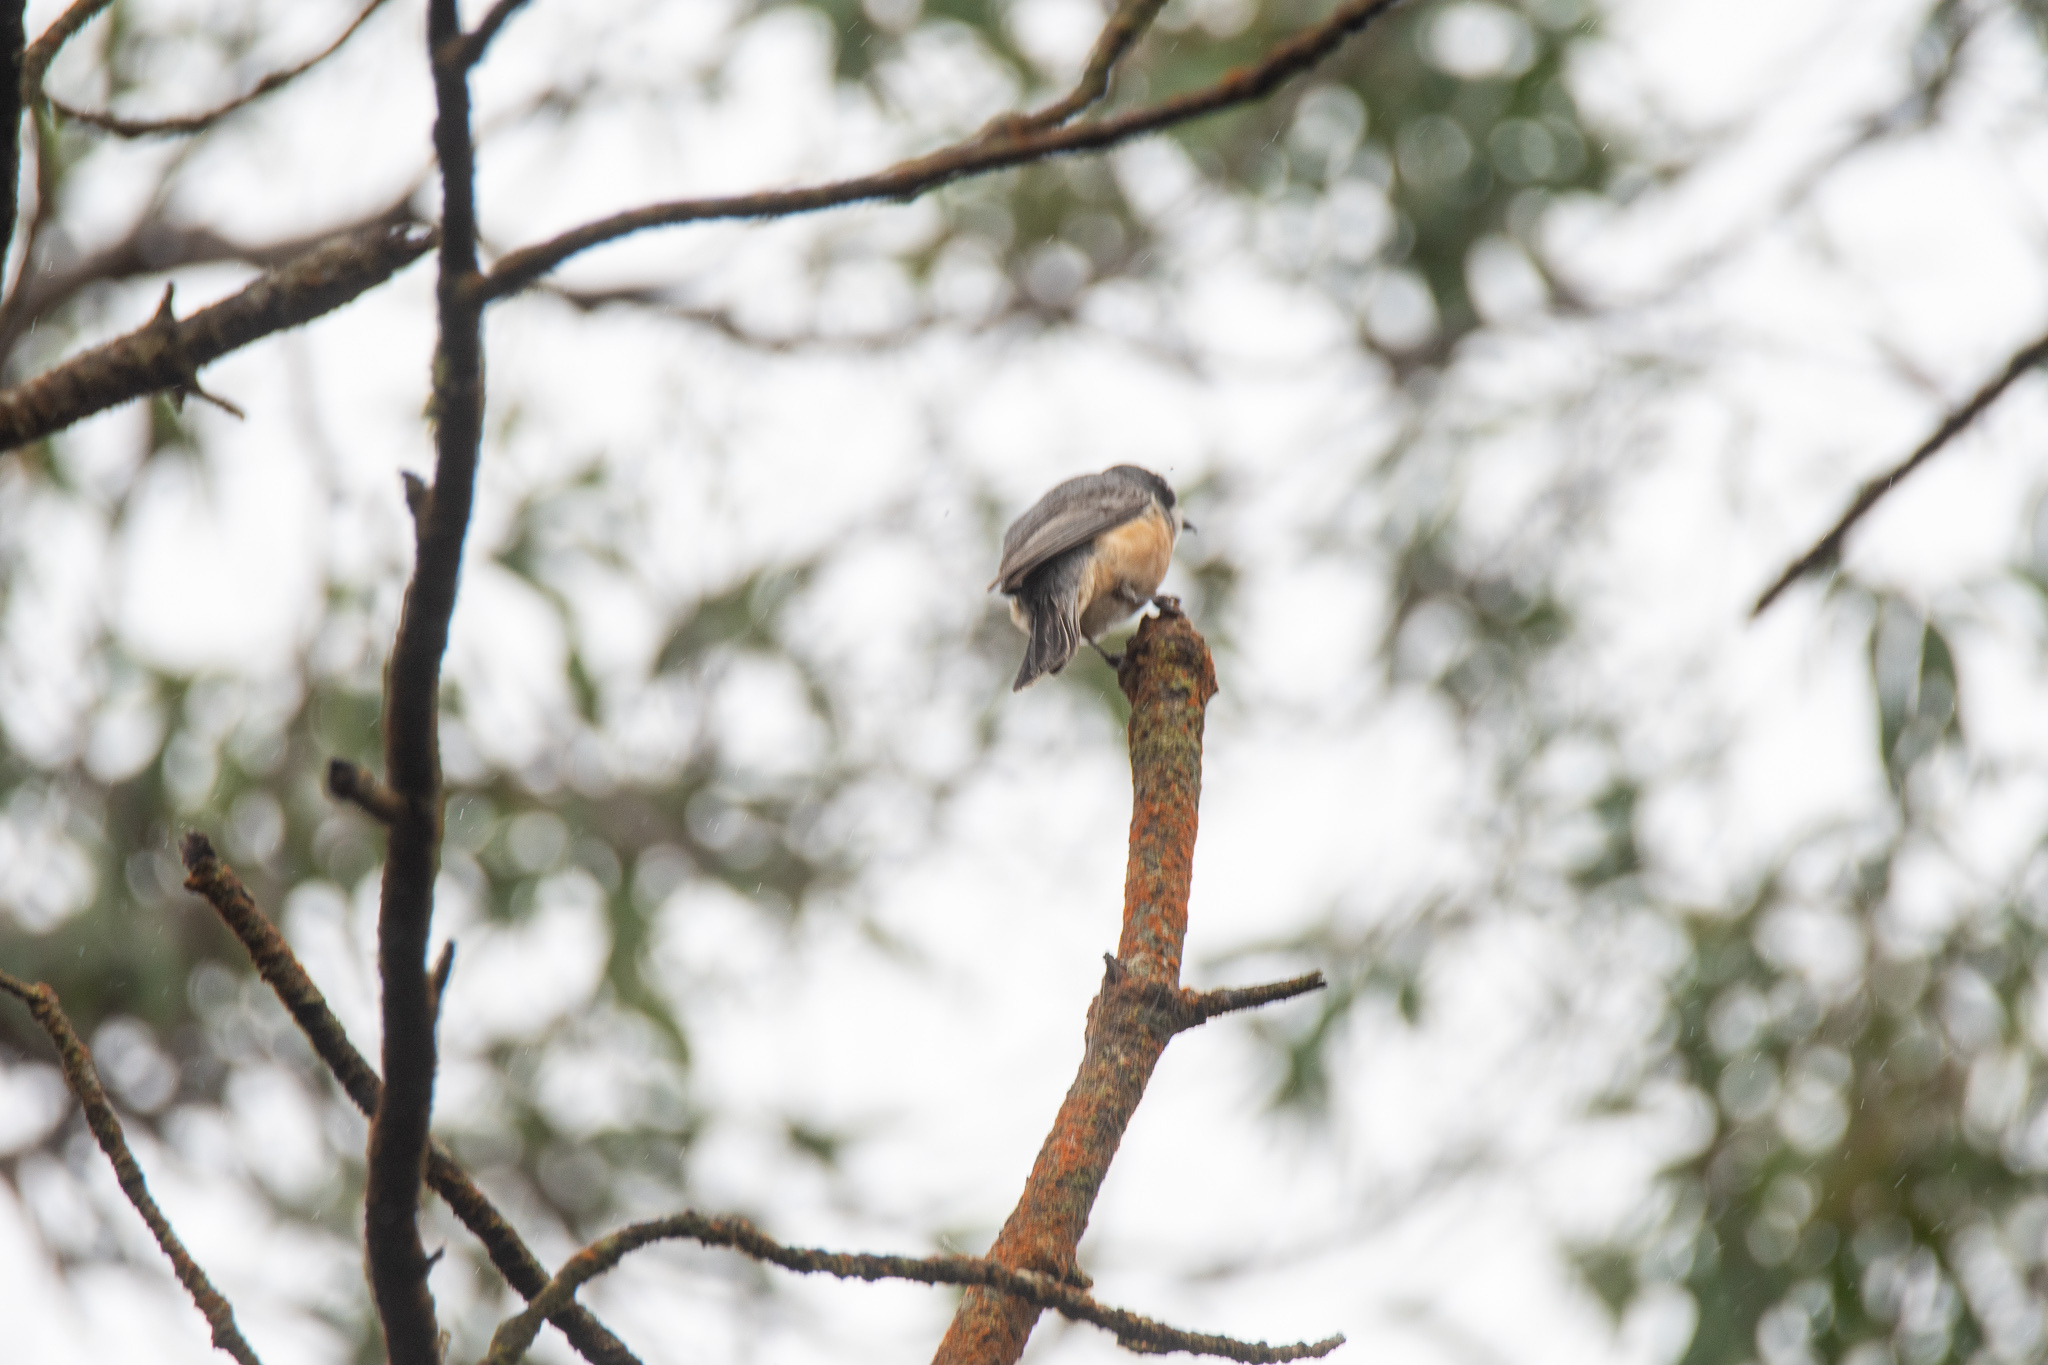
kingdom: Animalia
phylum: Chordata
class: Aves
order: Passeriformes
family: Pachycephalidae
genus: Pachycephala
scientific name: Pachycephala rufiventris
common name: Rufous whistler
